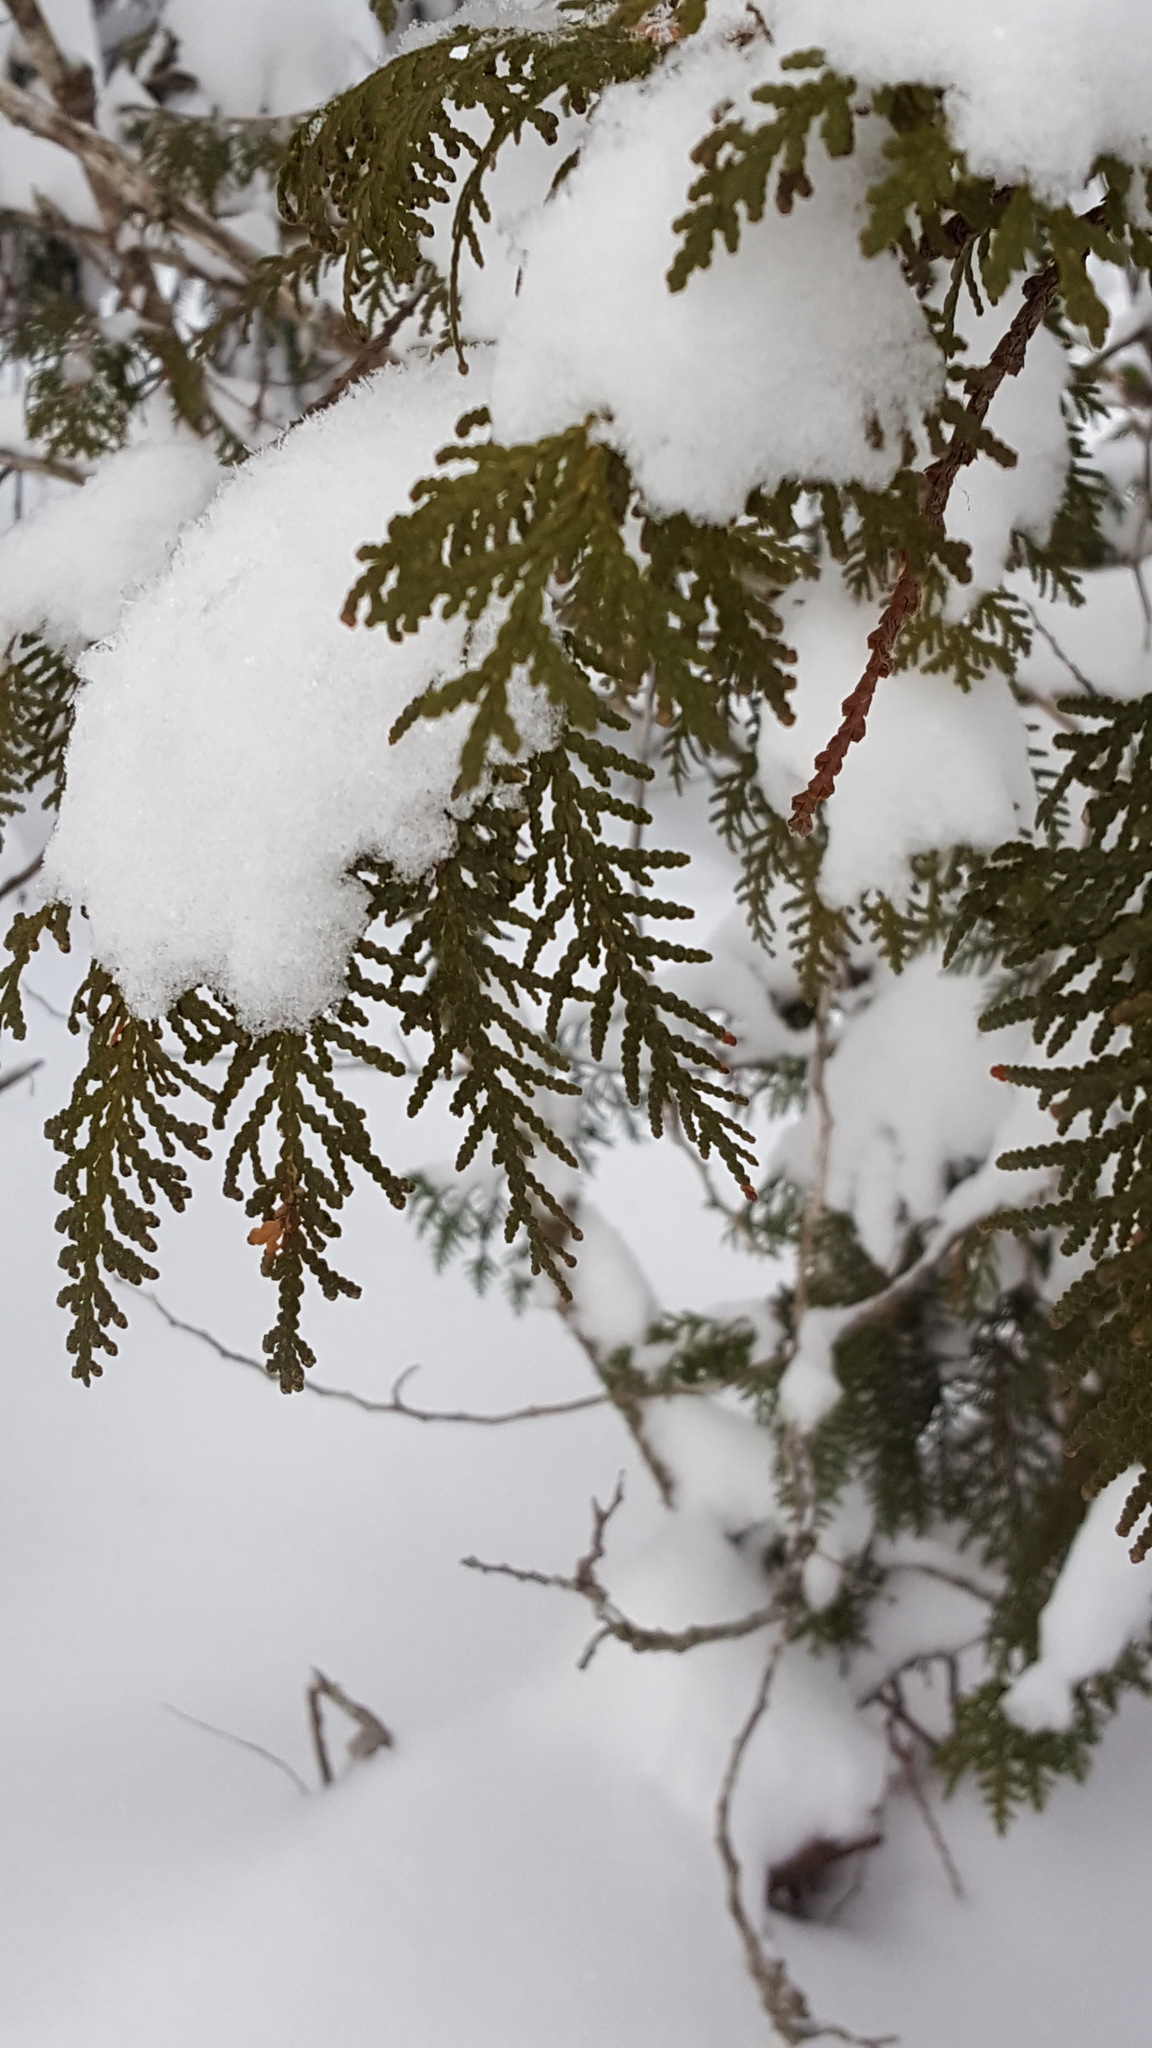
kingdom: Plantae
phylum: Tracheophyta
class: Pinopsida
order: Pinales
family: Cupressaceae
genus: Thuja
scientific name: Thuja occidentalis
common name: Northern white-cedar
